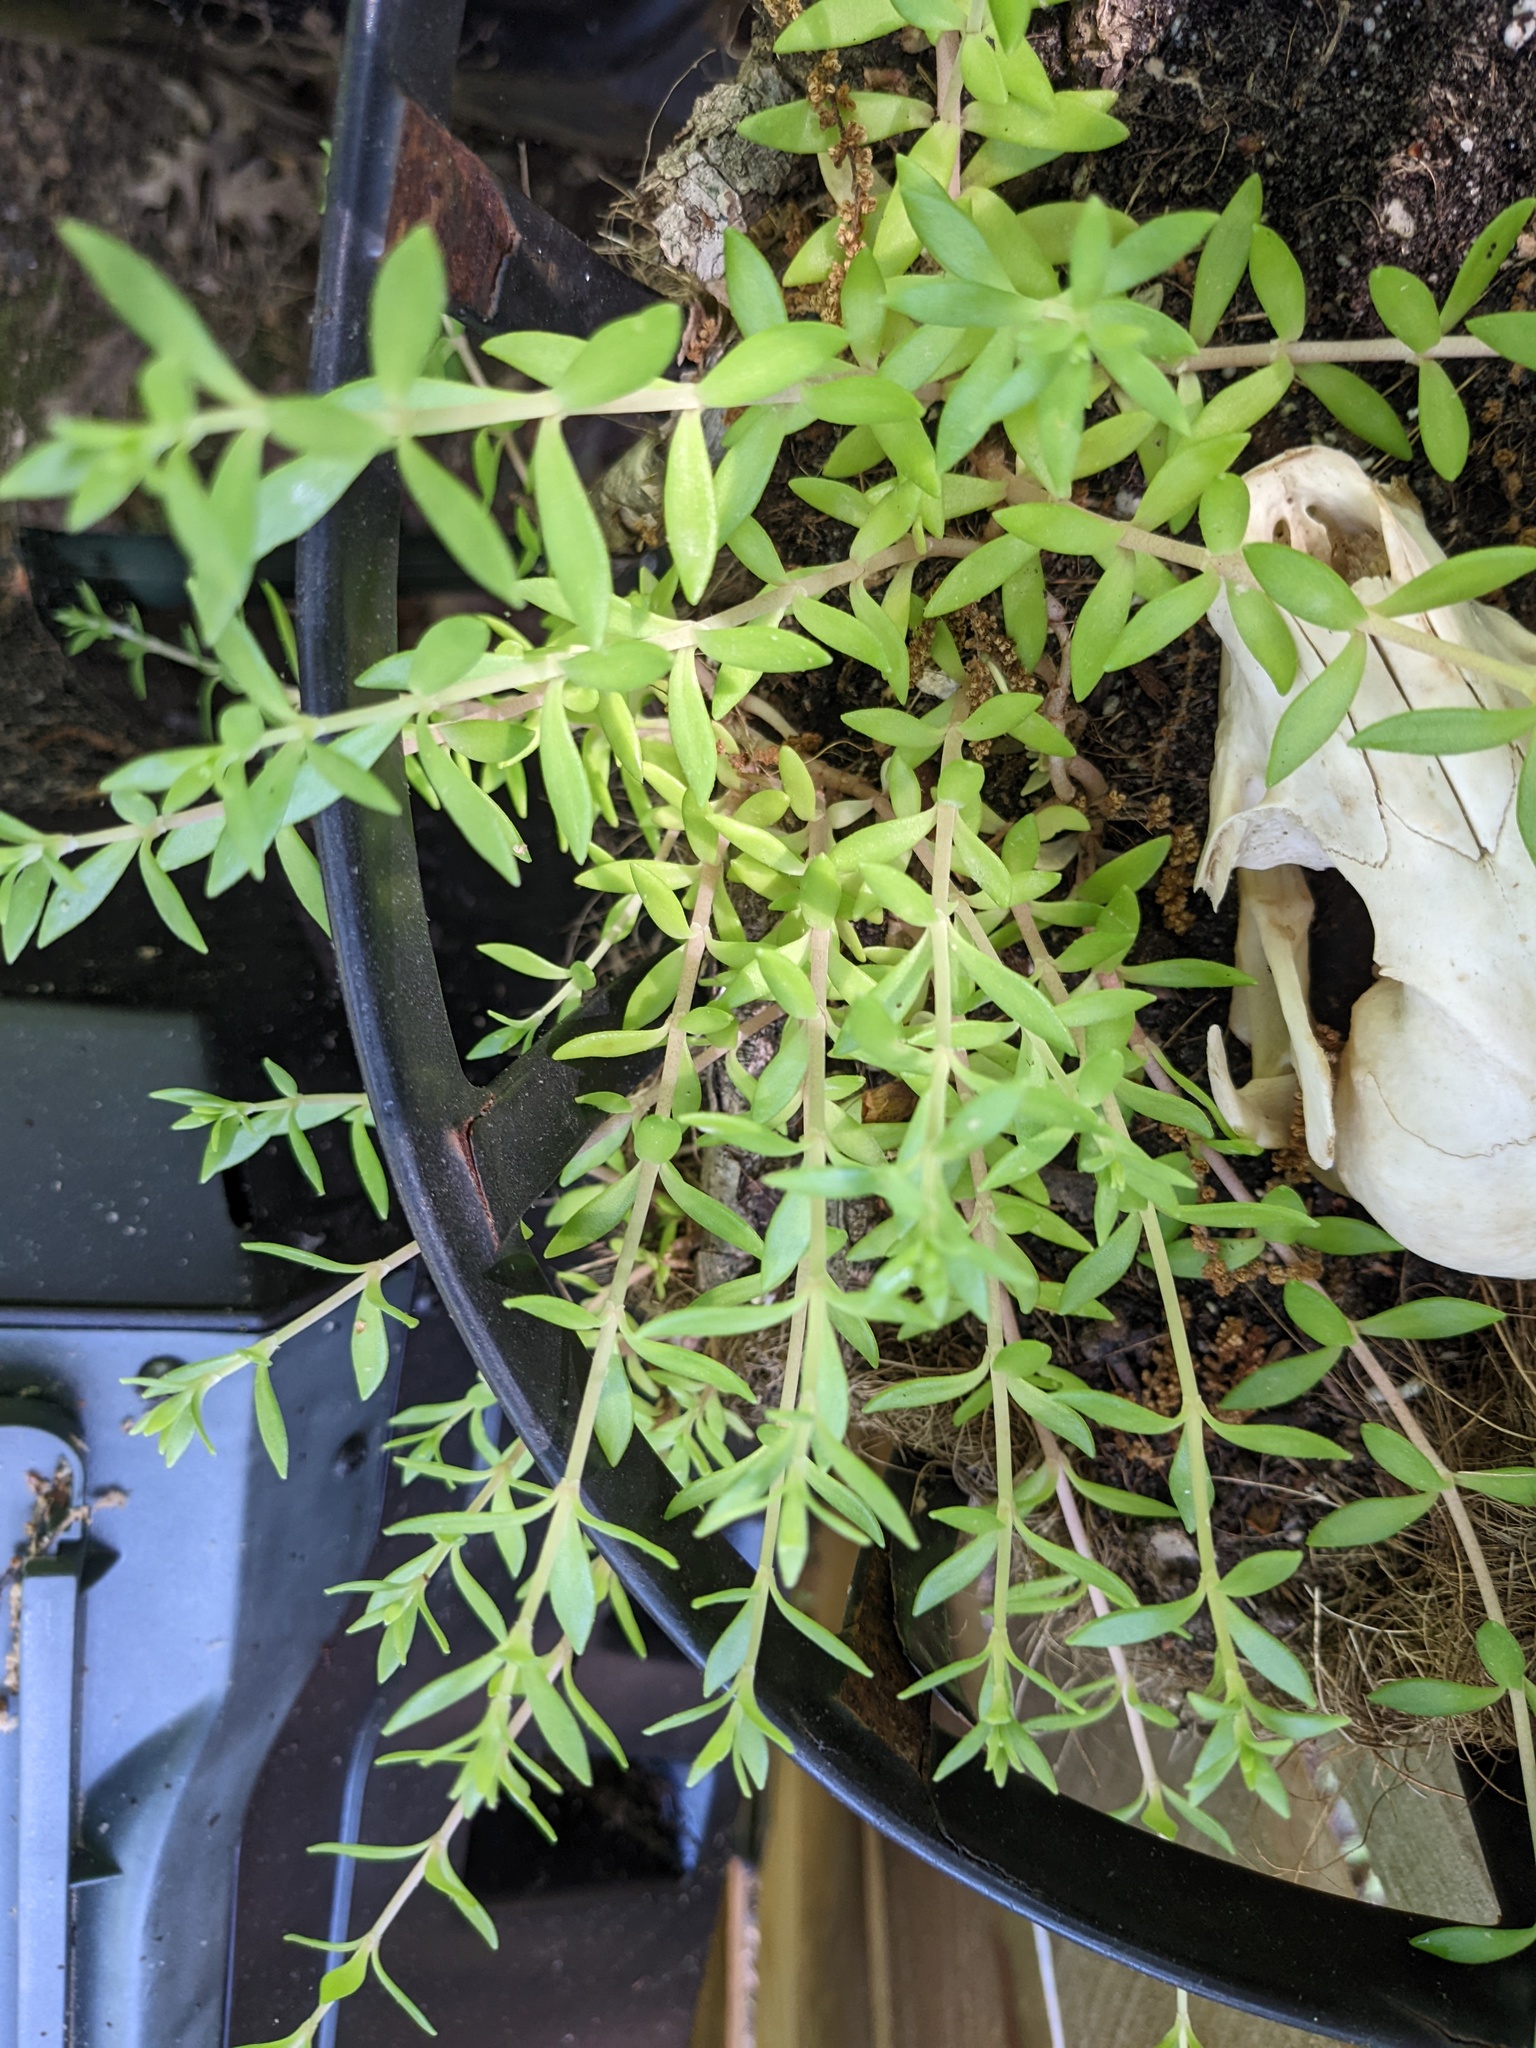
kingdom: Plantae
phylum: Tracheophyta
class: Magnoliopsida
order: Saxifragales
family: Crassulaceae
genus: Sedum
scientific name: Sedum sarmentosum
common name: Stringy stonecrop
